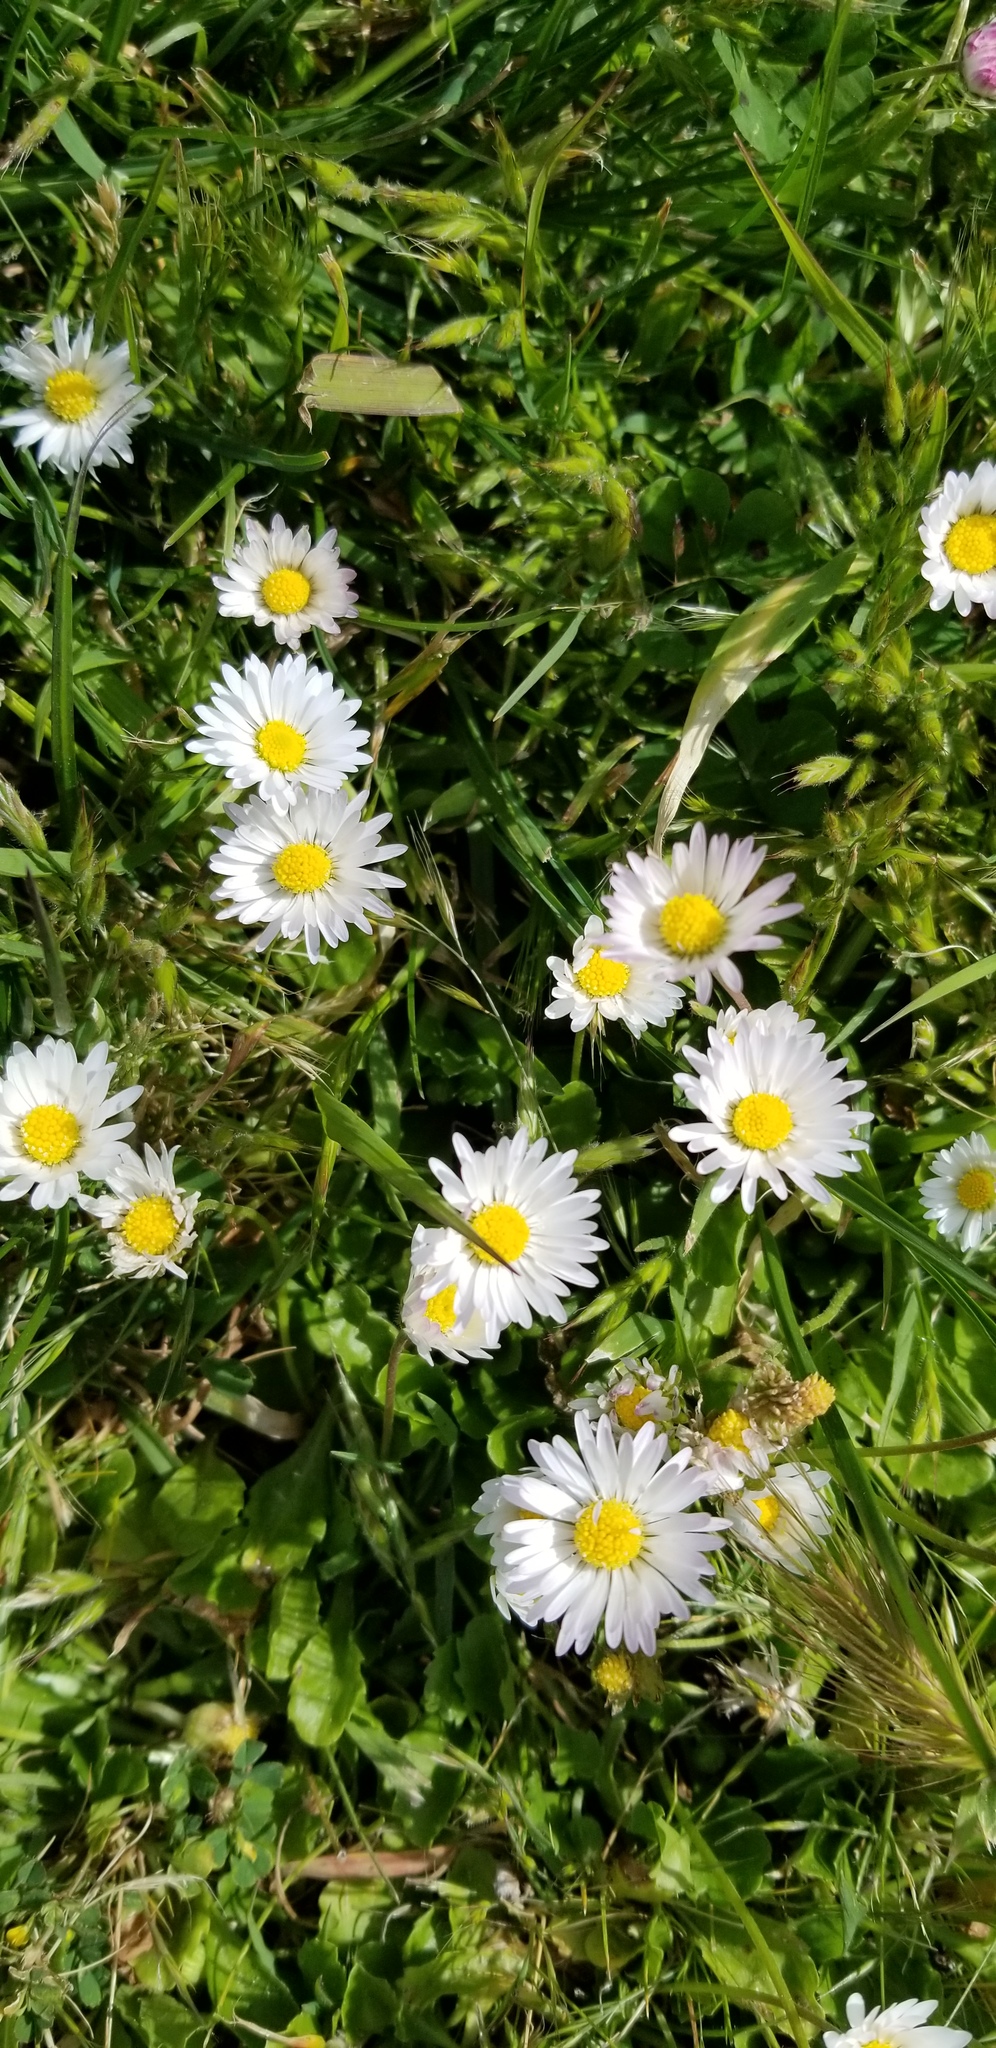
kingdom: Plantae
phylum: Tracheophyta
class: Magnoliopsida
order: Asterales
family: Asteraceae
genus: Bellis
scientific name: Bellis perennis
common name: Lawndaisy
